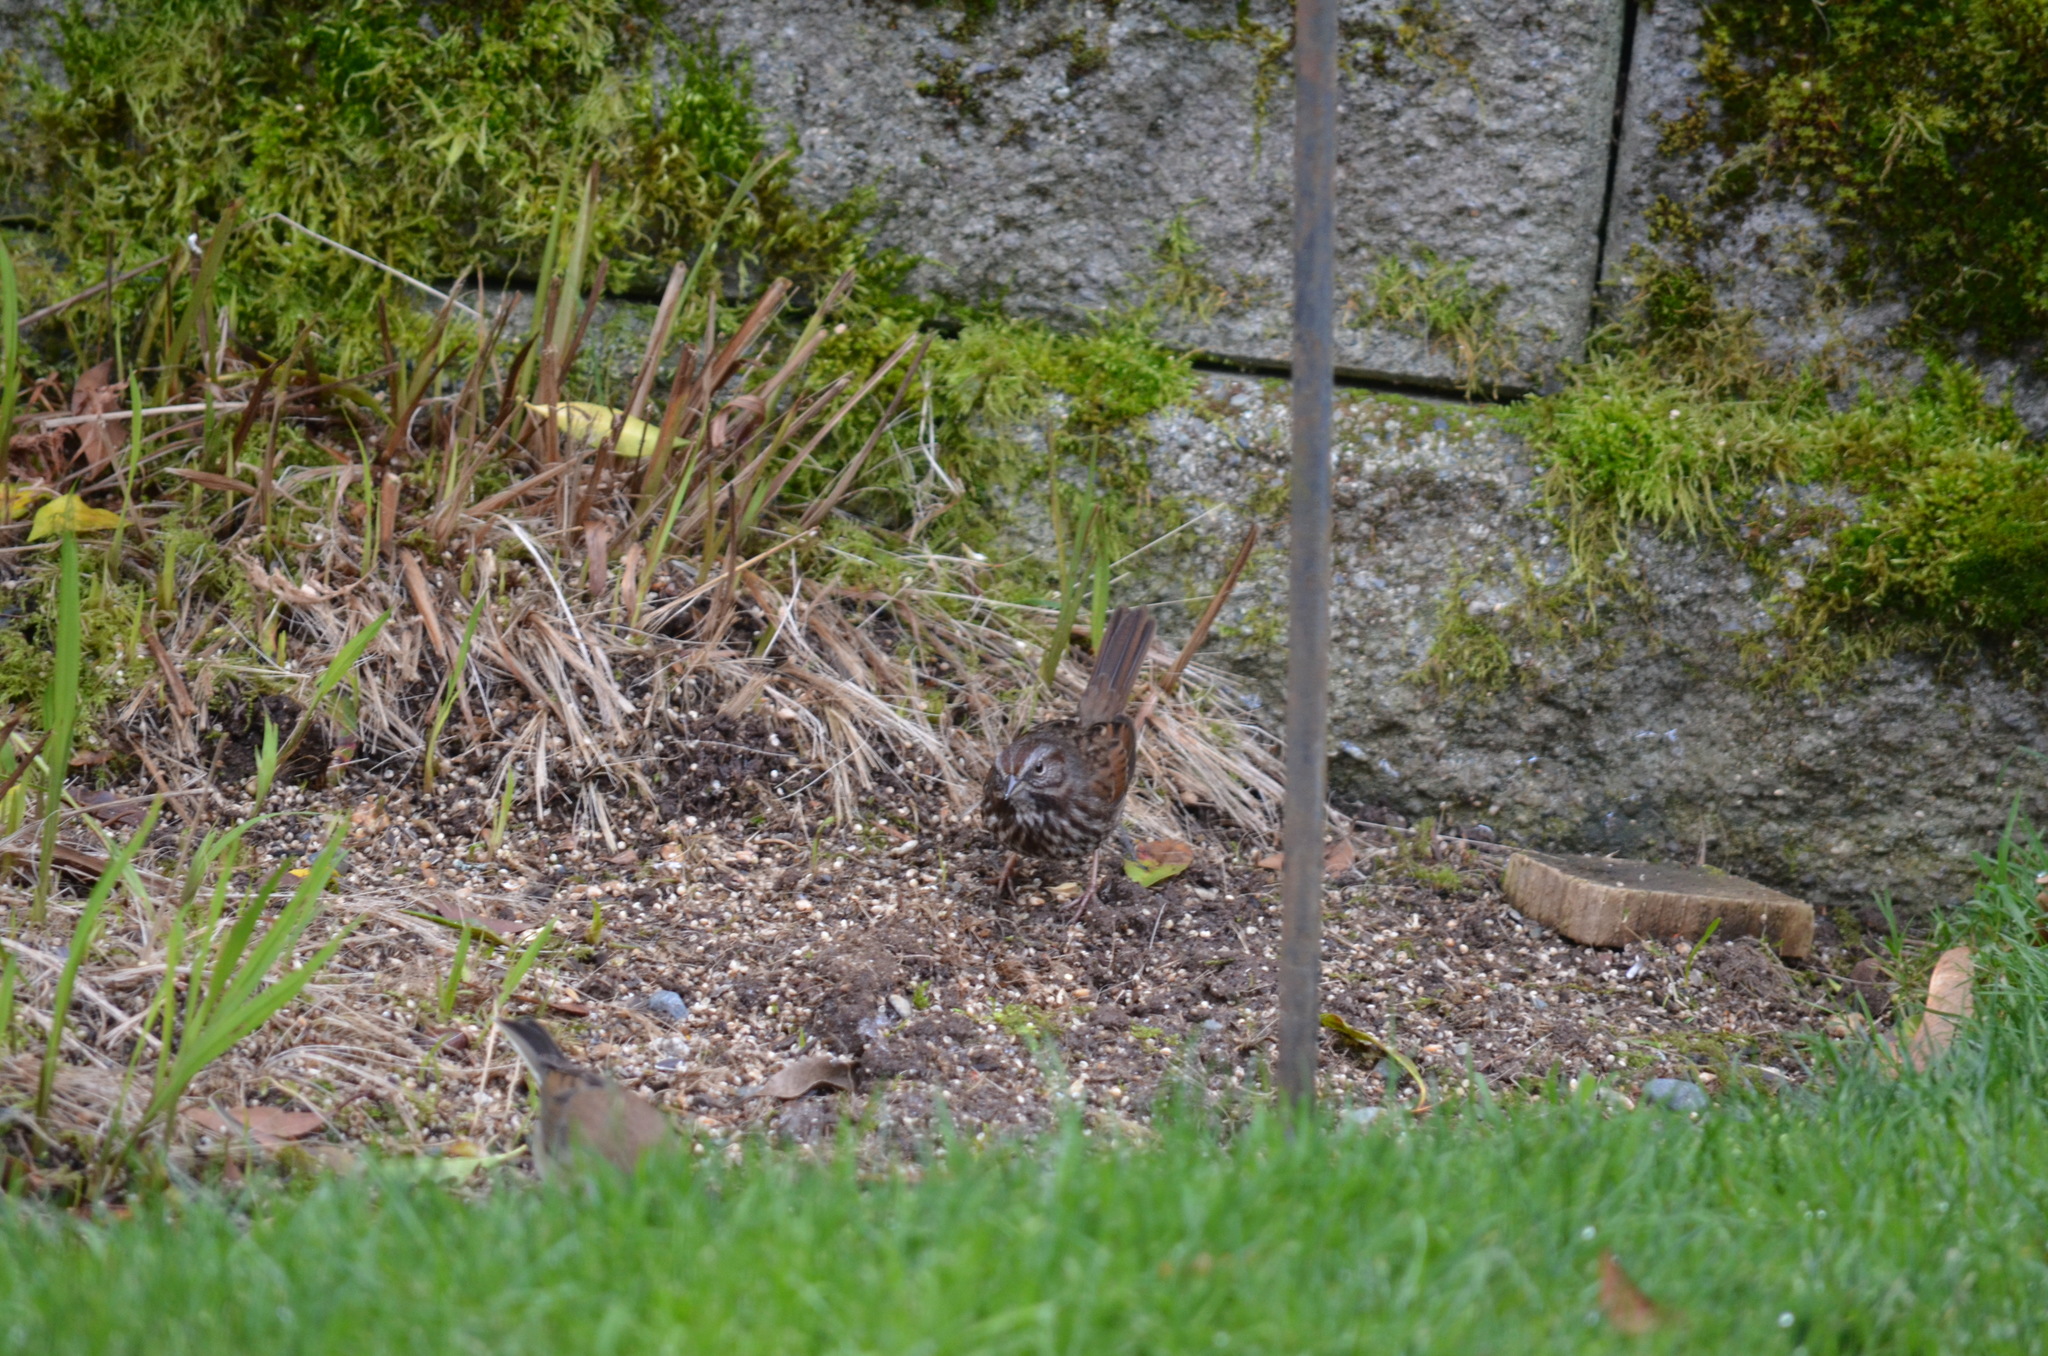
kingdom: Animalia
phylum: Chordata
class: Aves
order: Passeriformes
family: Passerellidae
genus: Melospiza
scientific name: Melospiza melodia
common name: Song sparrow
